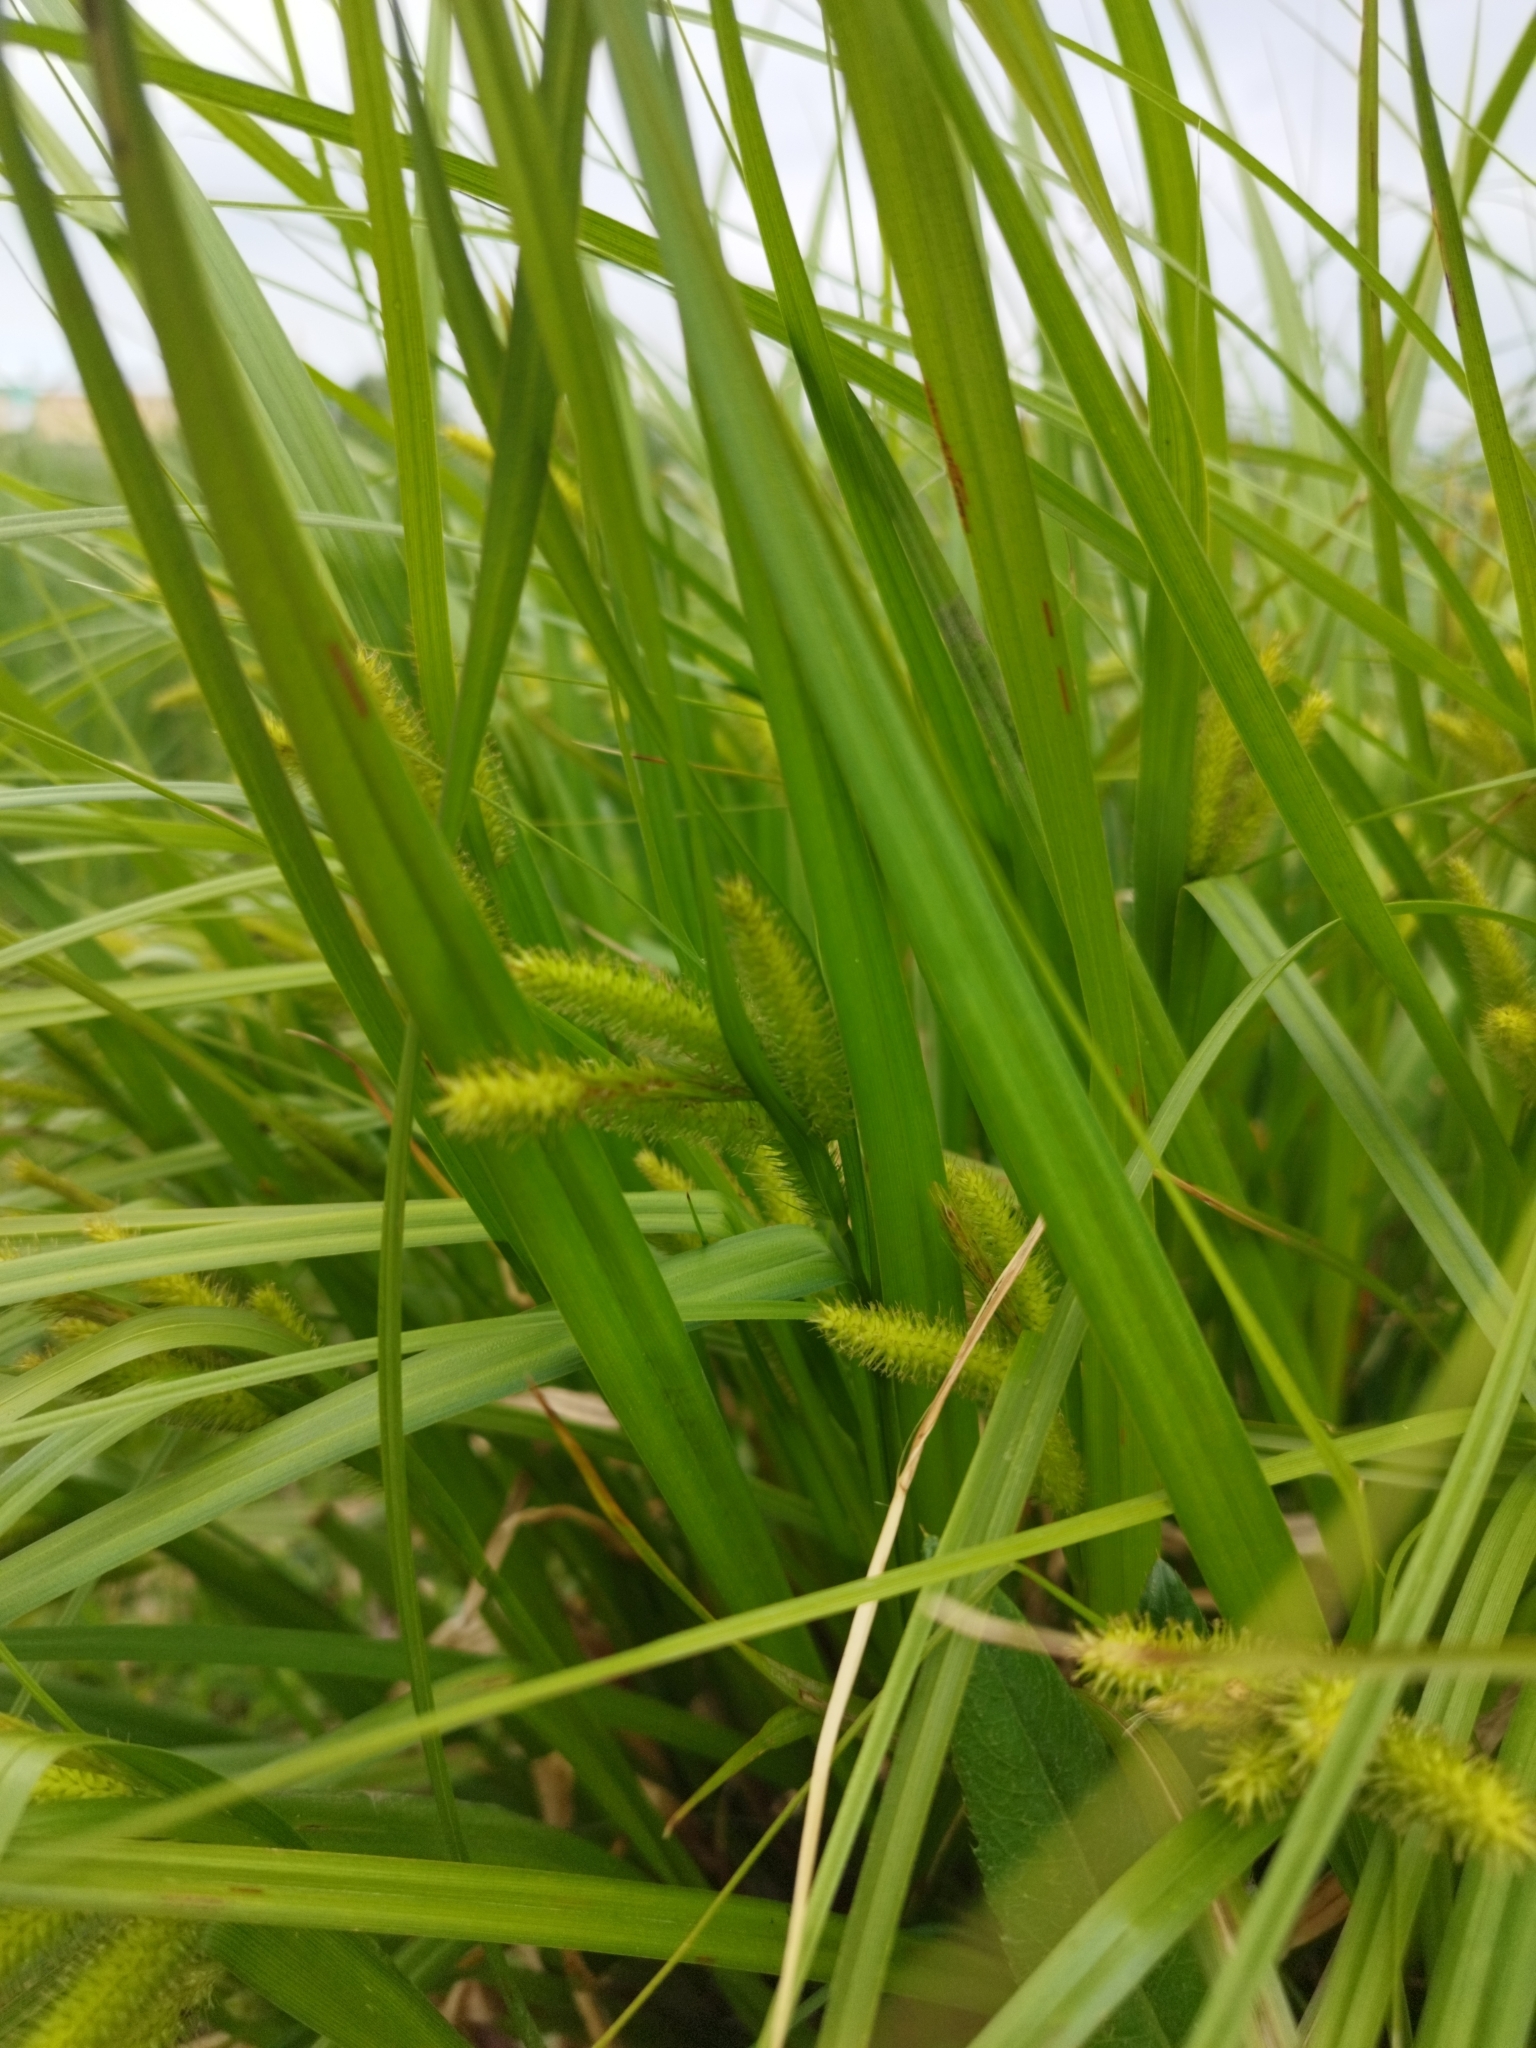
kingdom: Plantae
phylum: Tracheophyta
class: Liliopsida
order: Poales
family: Cyperaceae
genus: Carex
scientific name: Carex pseudocyperus
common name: Cyperus sedge
